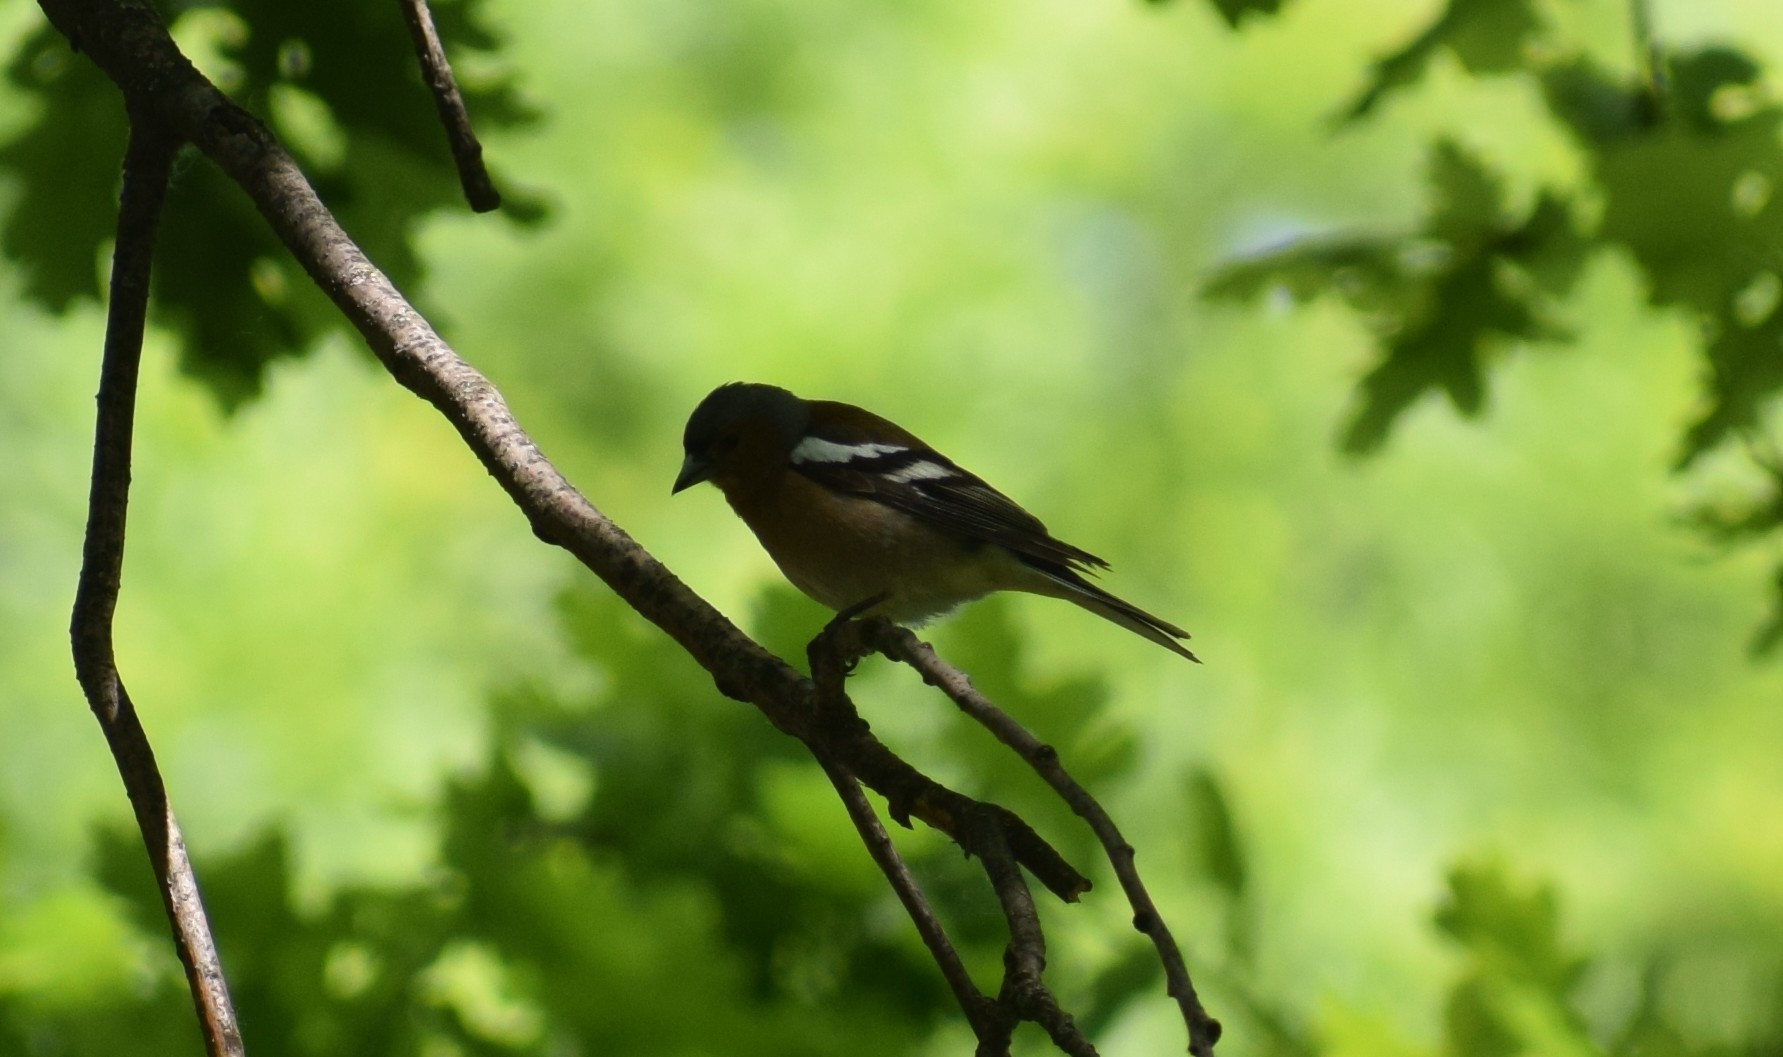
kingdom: Animalia
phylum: Chordata
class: Aves
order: Passeriformes
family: Fringillidae
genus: Fringilla
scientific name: Fringilla coelebs
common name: Common chaffinch
